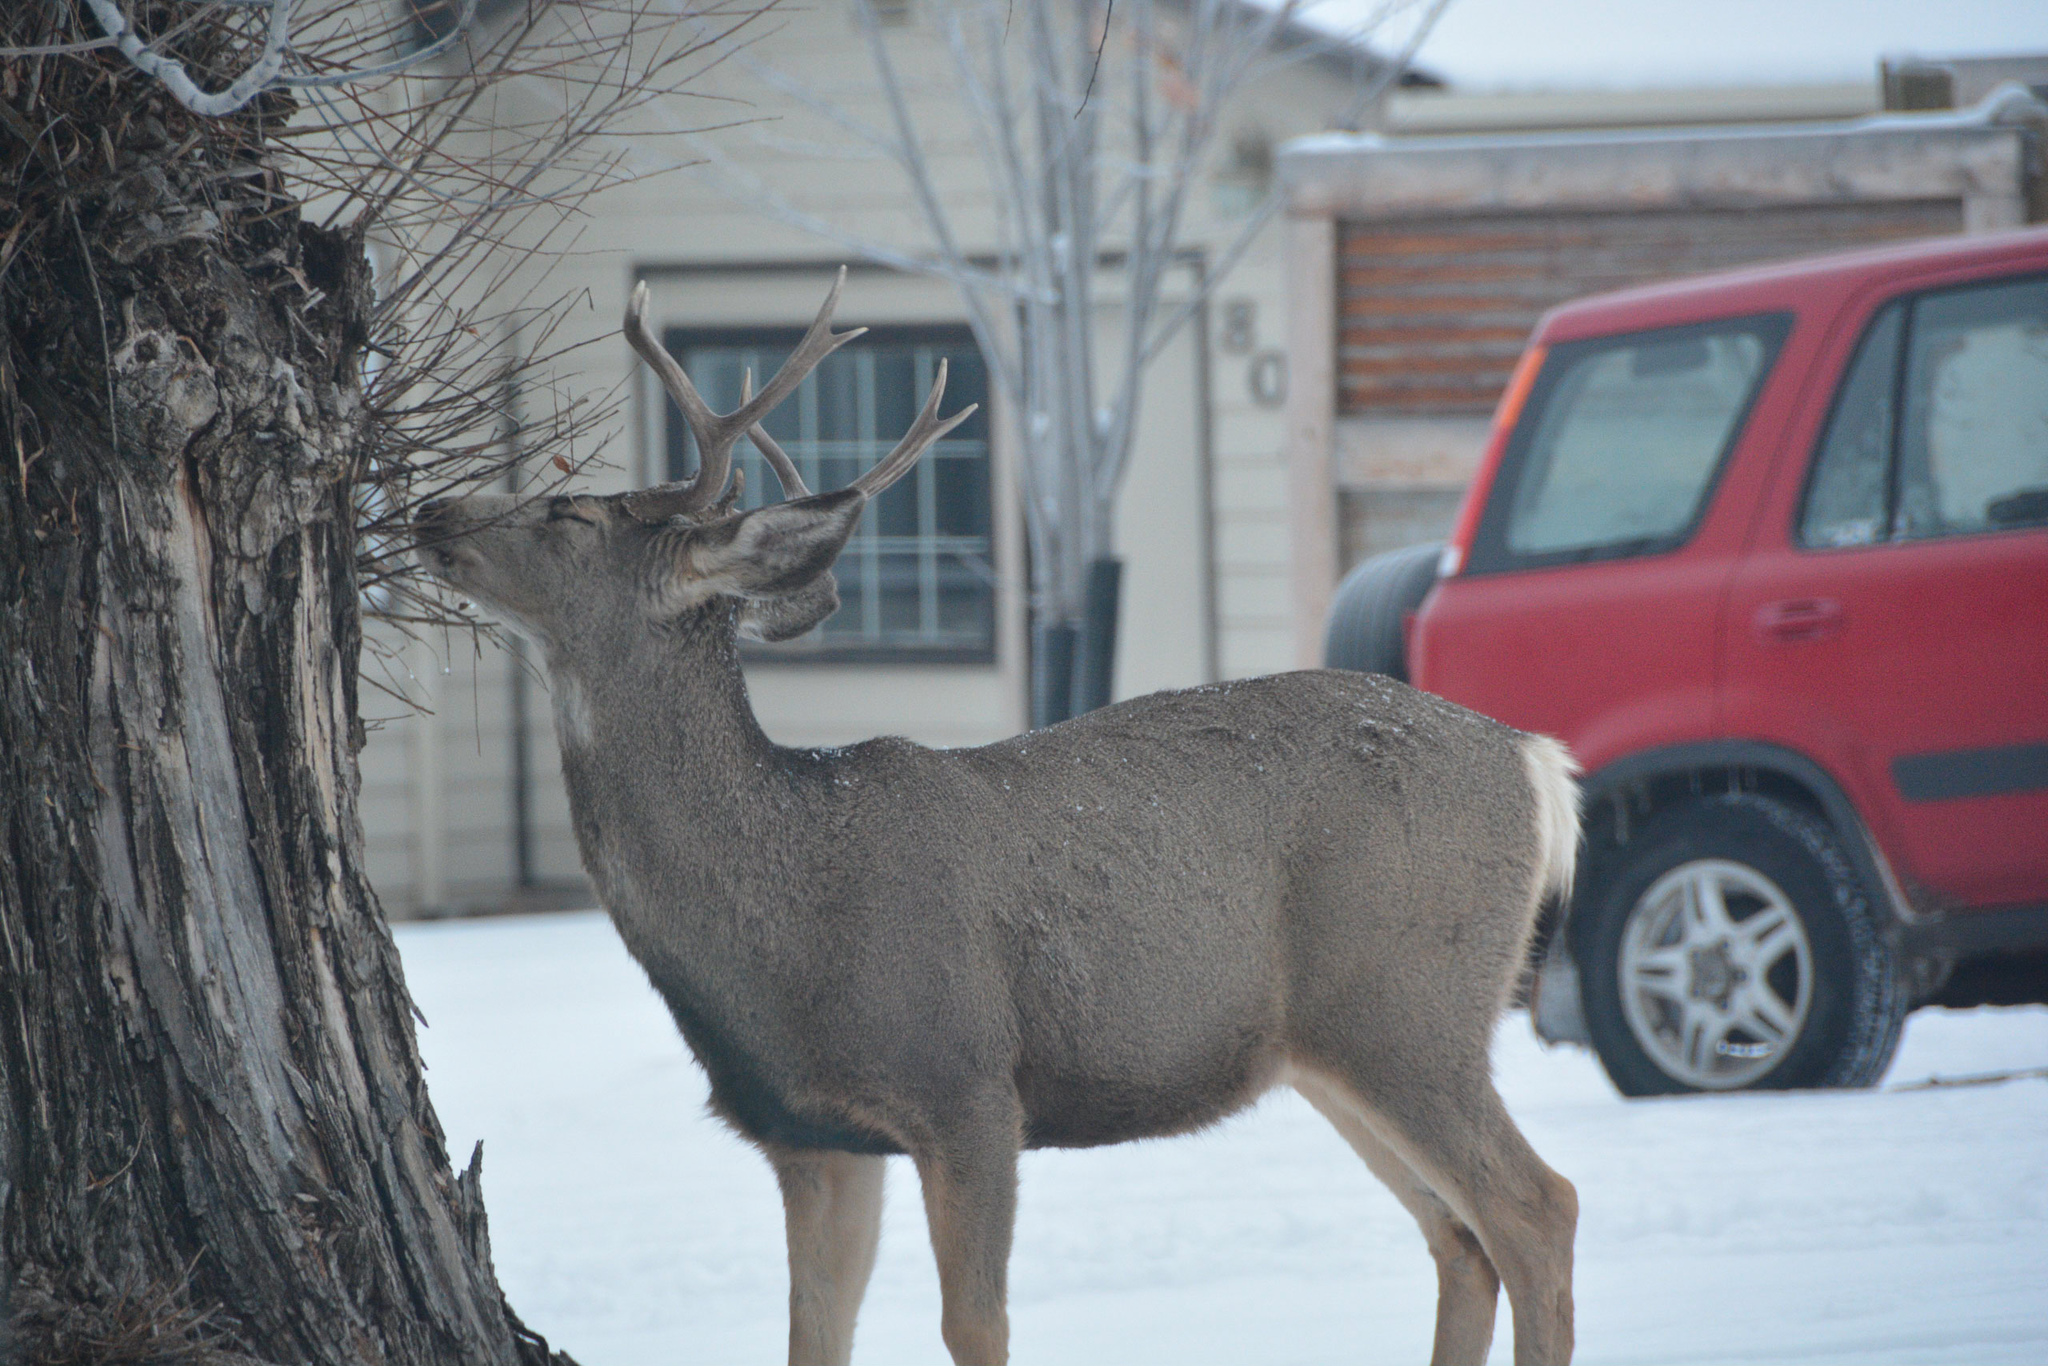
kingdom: Animalia
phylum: Chordata
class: Mammalia
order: Artiodactyla
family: Cervidae
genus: Odocoileus
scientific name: Odocoileus hemionus
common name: Mule deer
